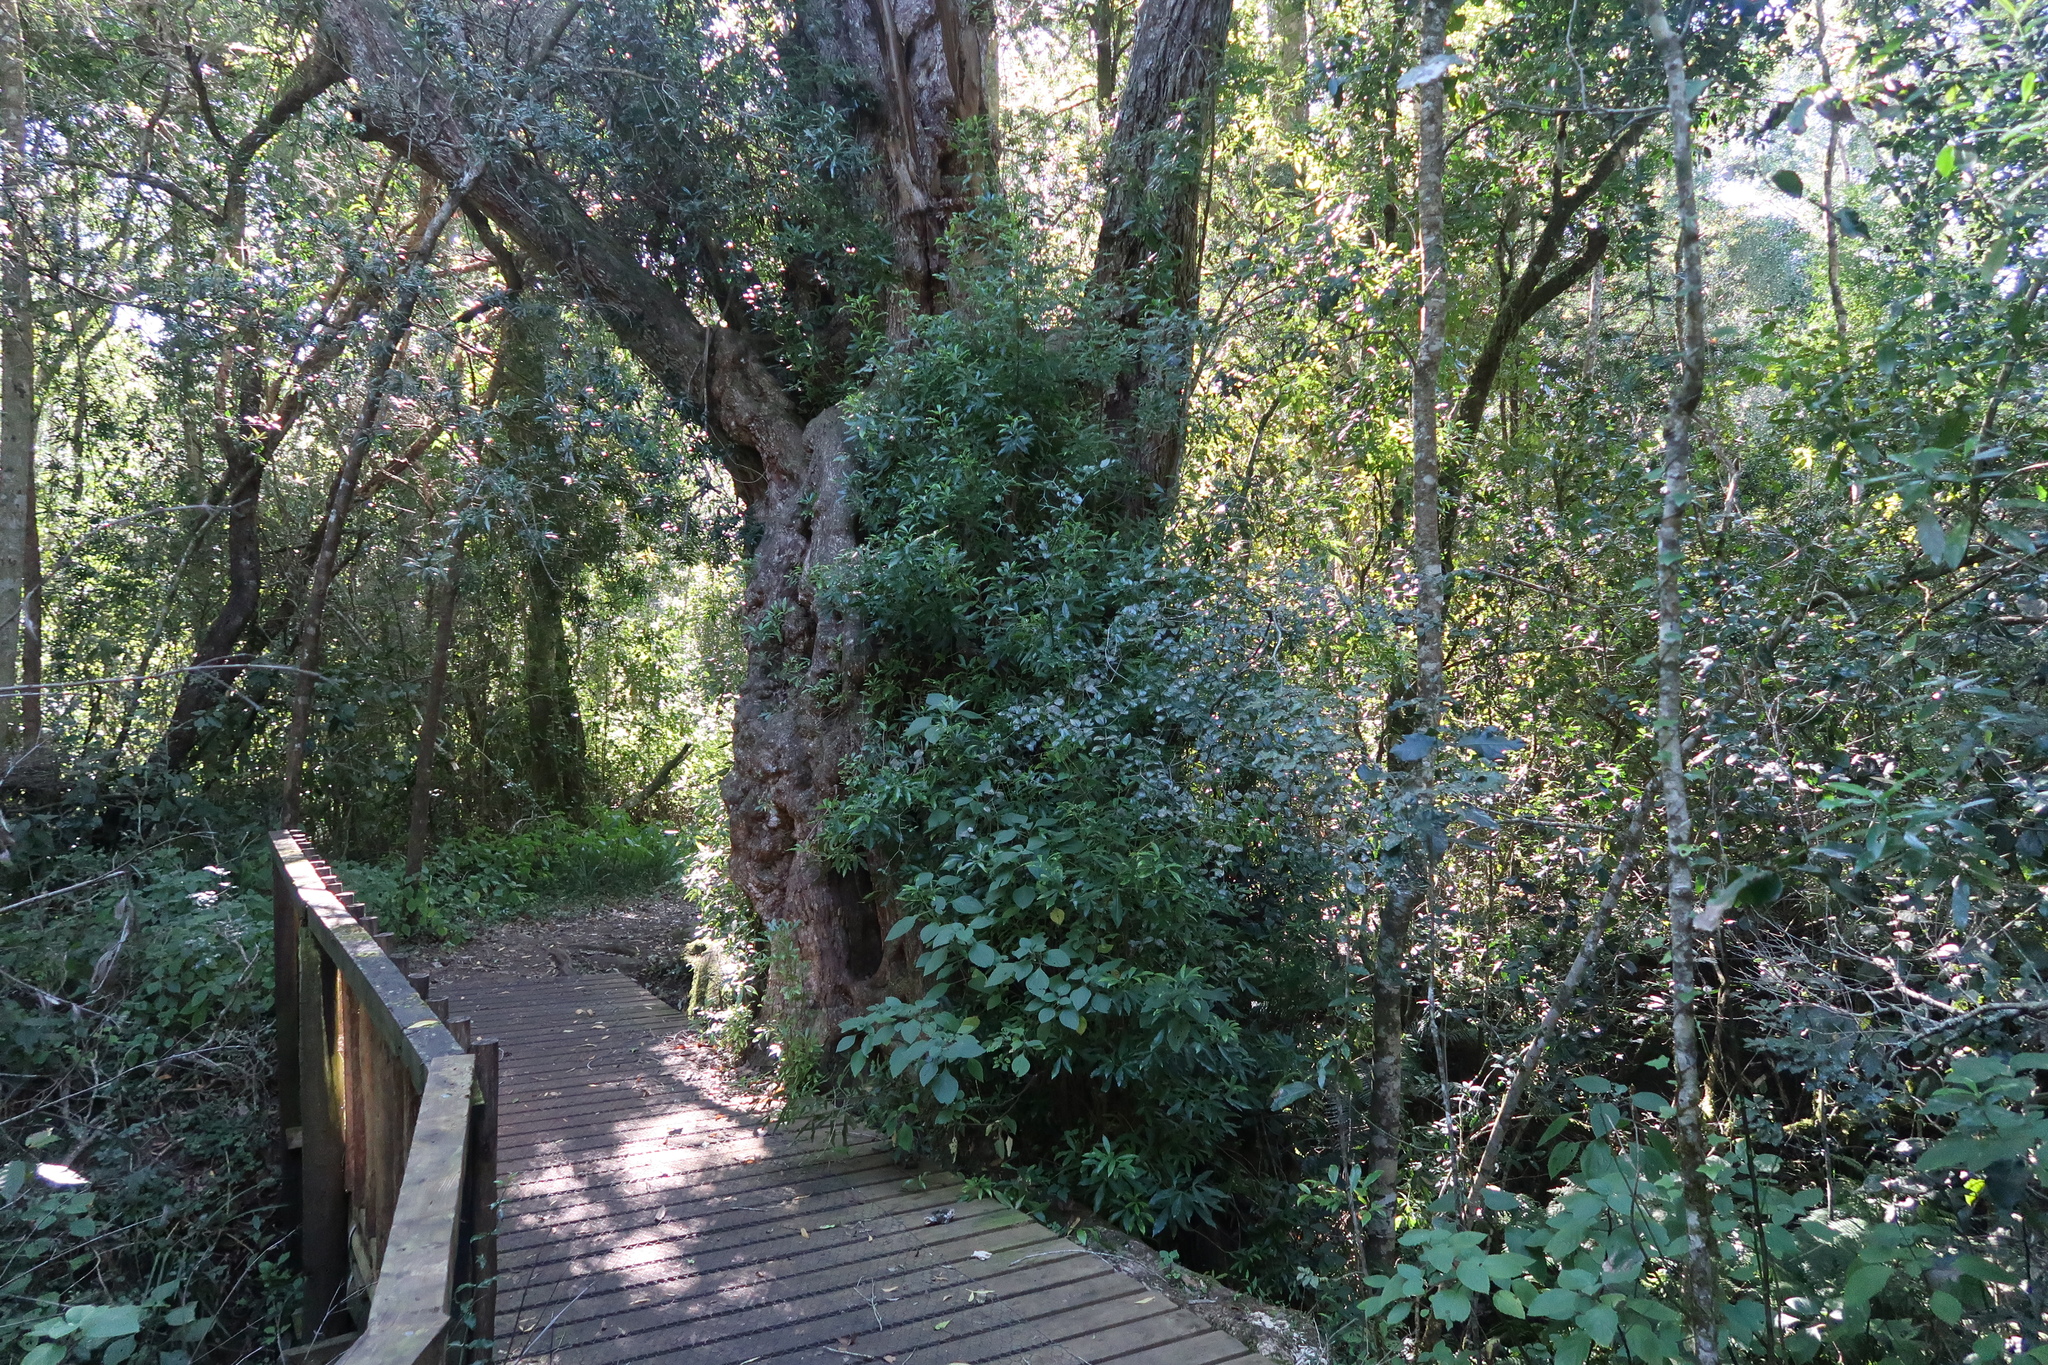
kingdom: Plantae
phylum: Tracheophyta
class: Magnoliopsida
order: Oxalidales
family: Cunoniaceae
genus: Platylophus
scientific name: Platylophus trifoliatus
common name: White alder
